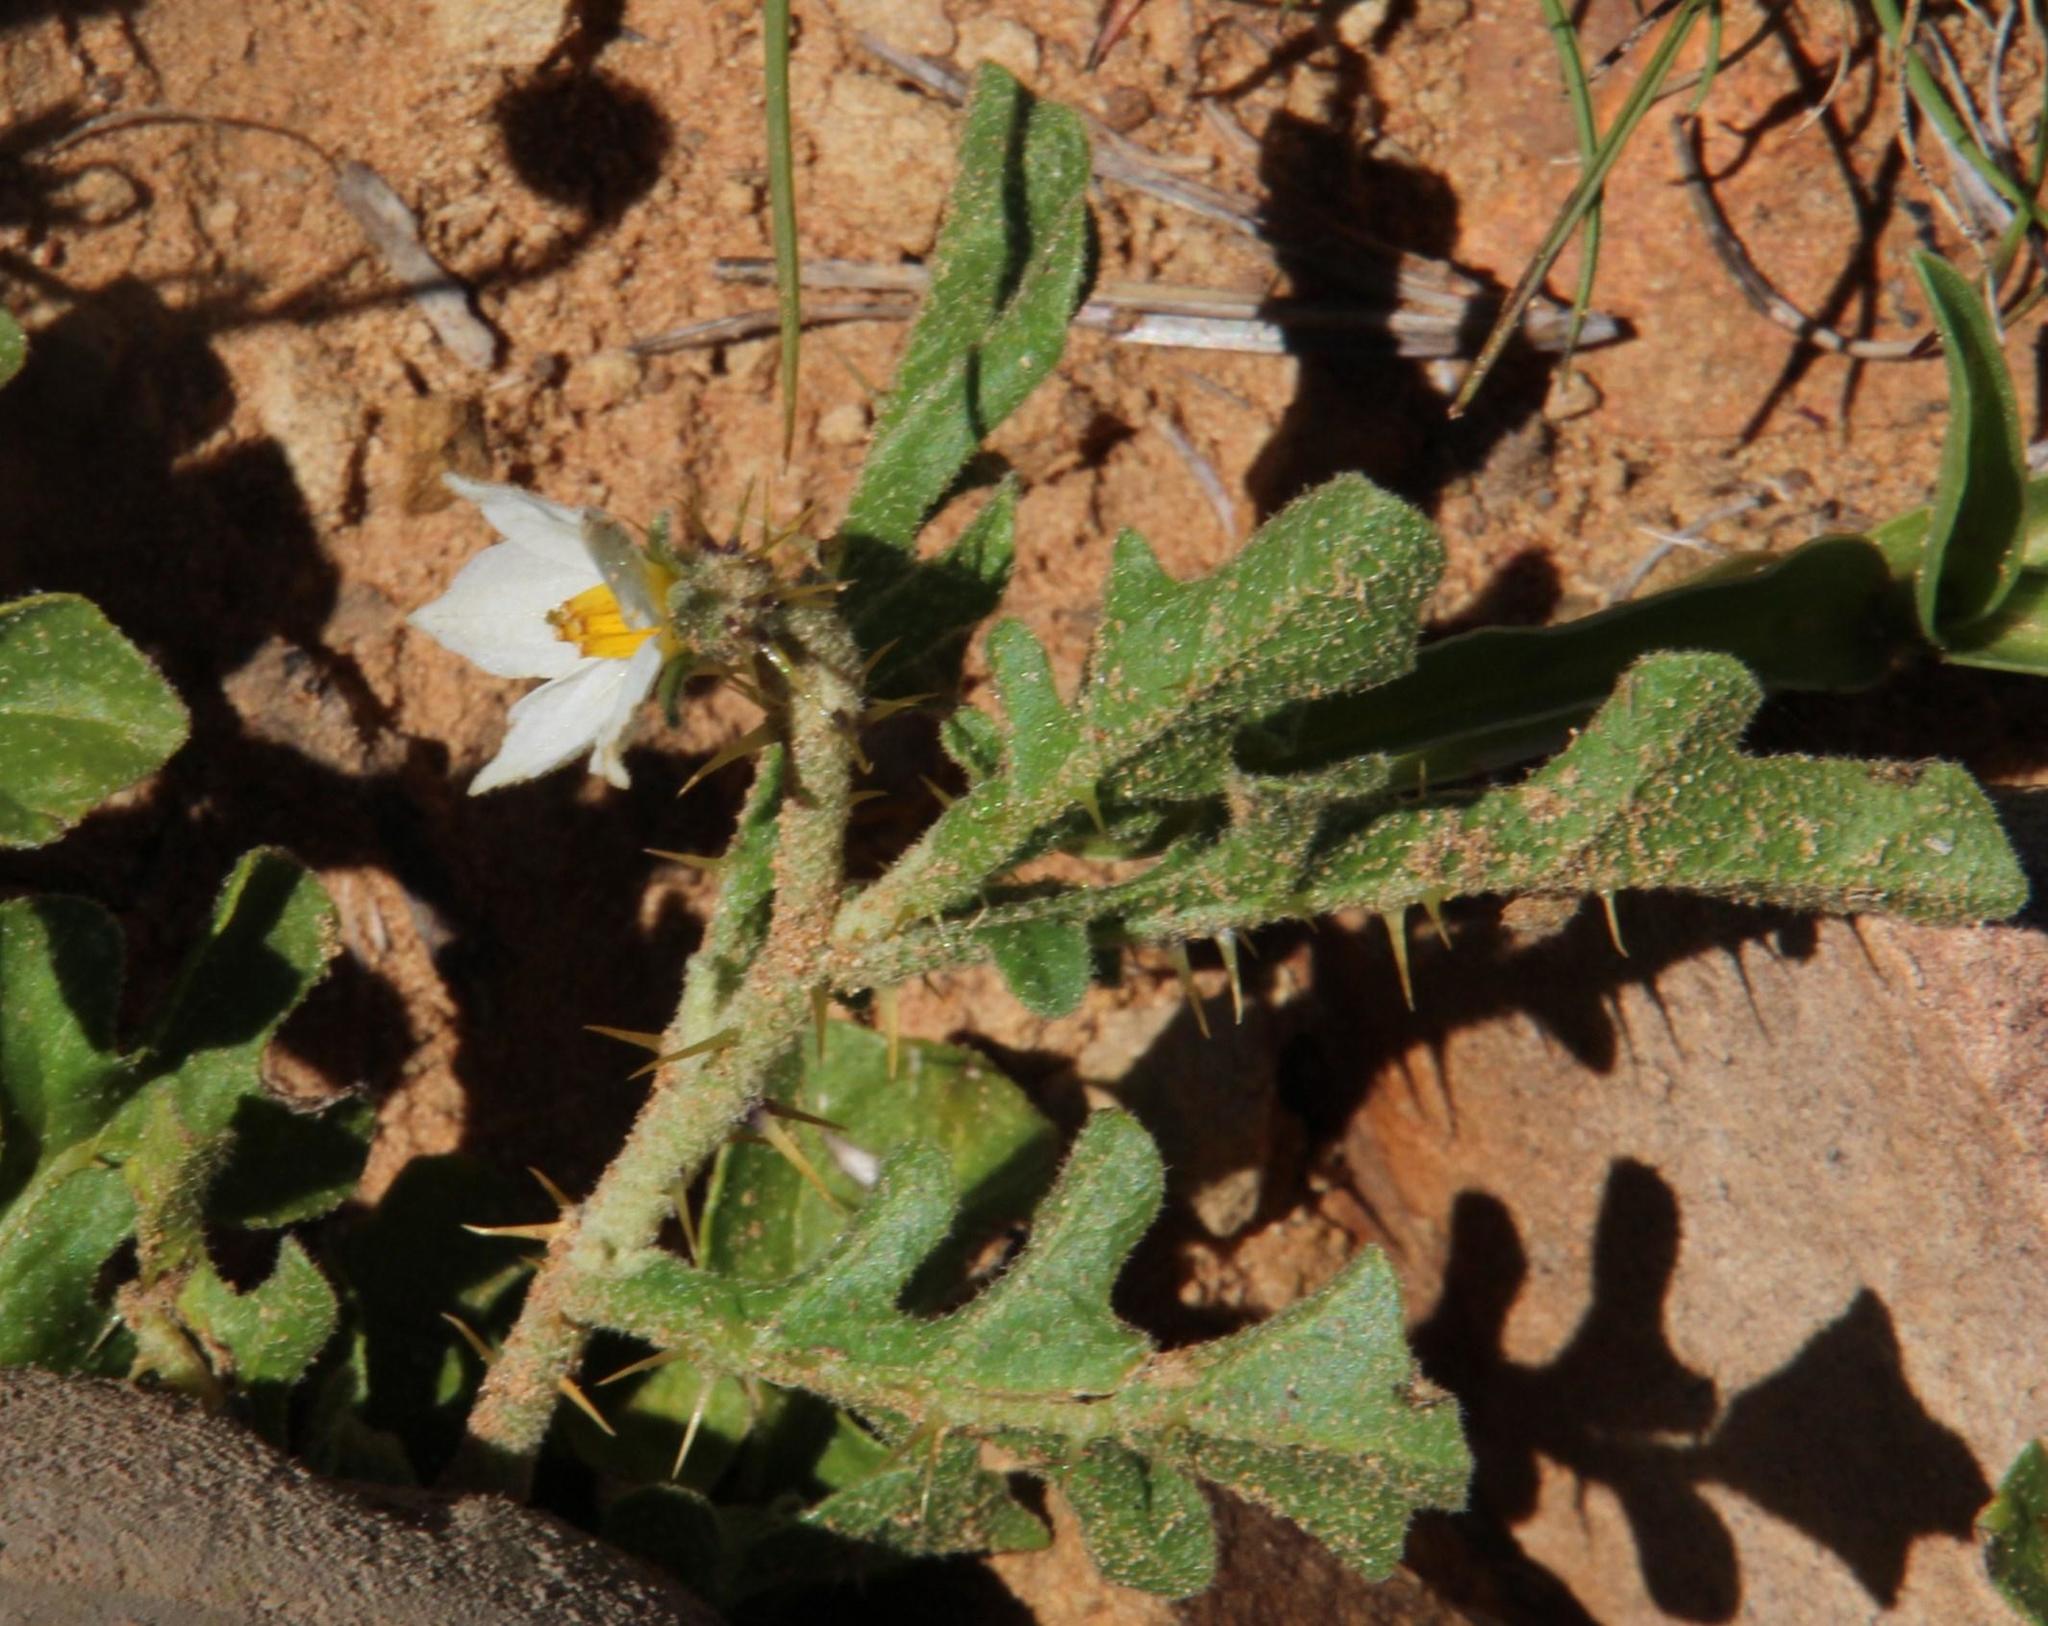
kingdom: Plantae
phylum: Tracheophyta
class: Magnoliopsida
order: Solanales
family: Solanaceae
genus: Solanum
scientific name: Solanum supinum
